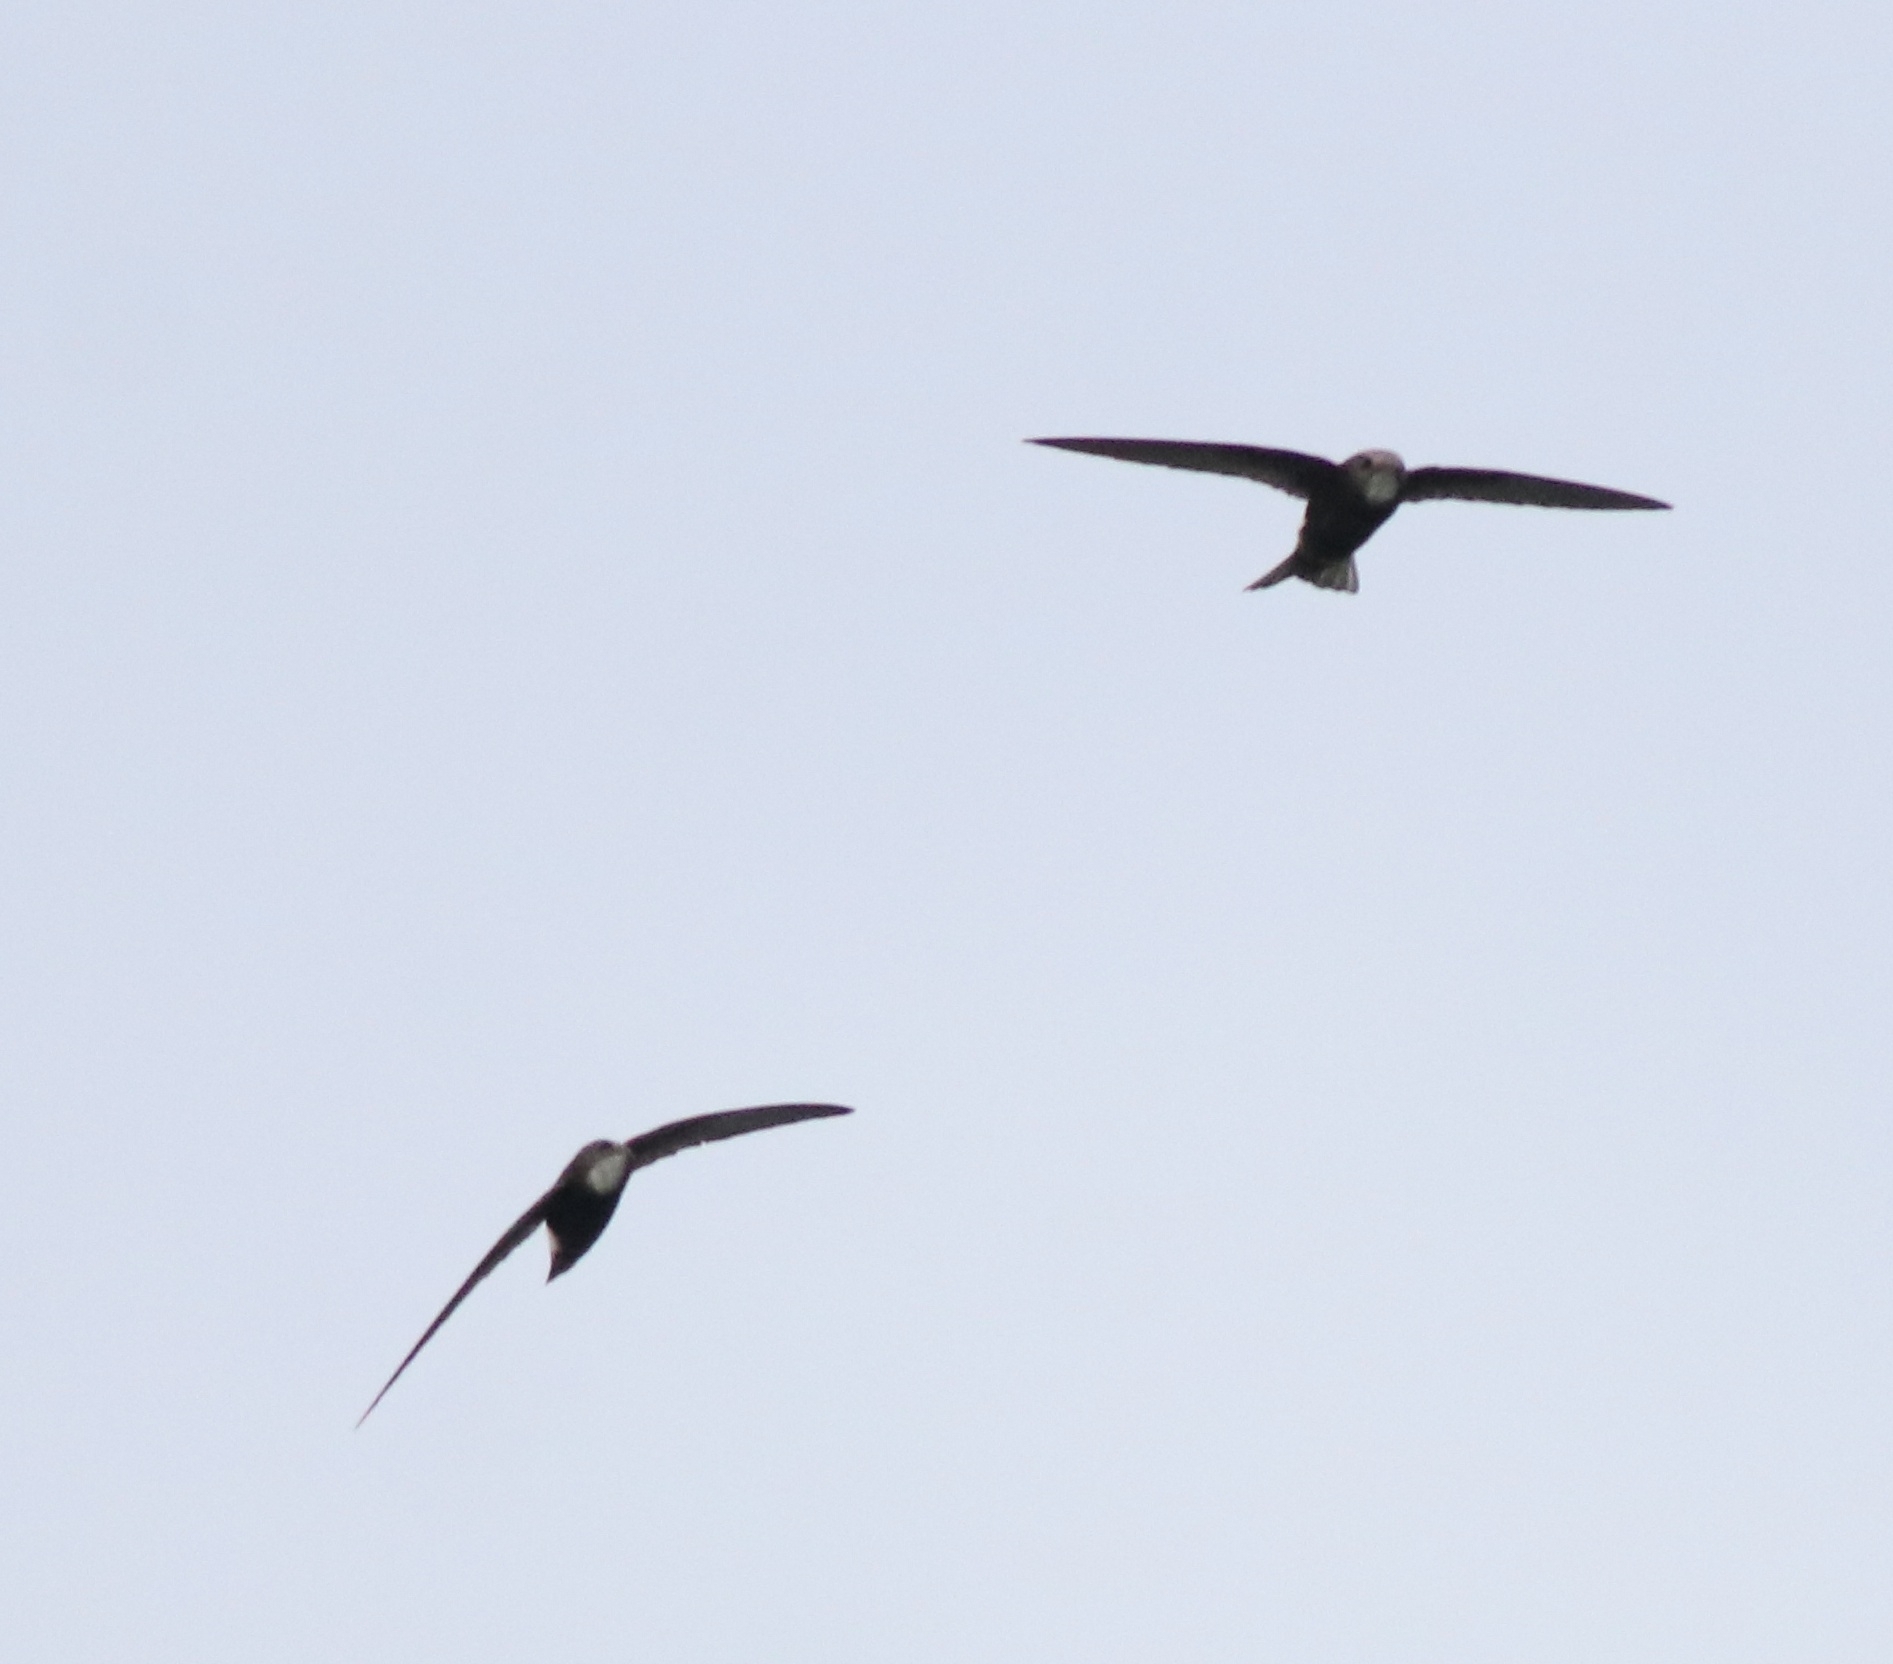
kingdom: Animalia
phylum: Chordata
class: Aves
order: Apodiformes
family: Apodidae
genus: Apus
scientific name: Apus affinis
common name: Little swift
